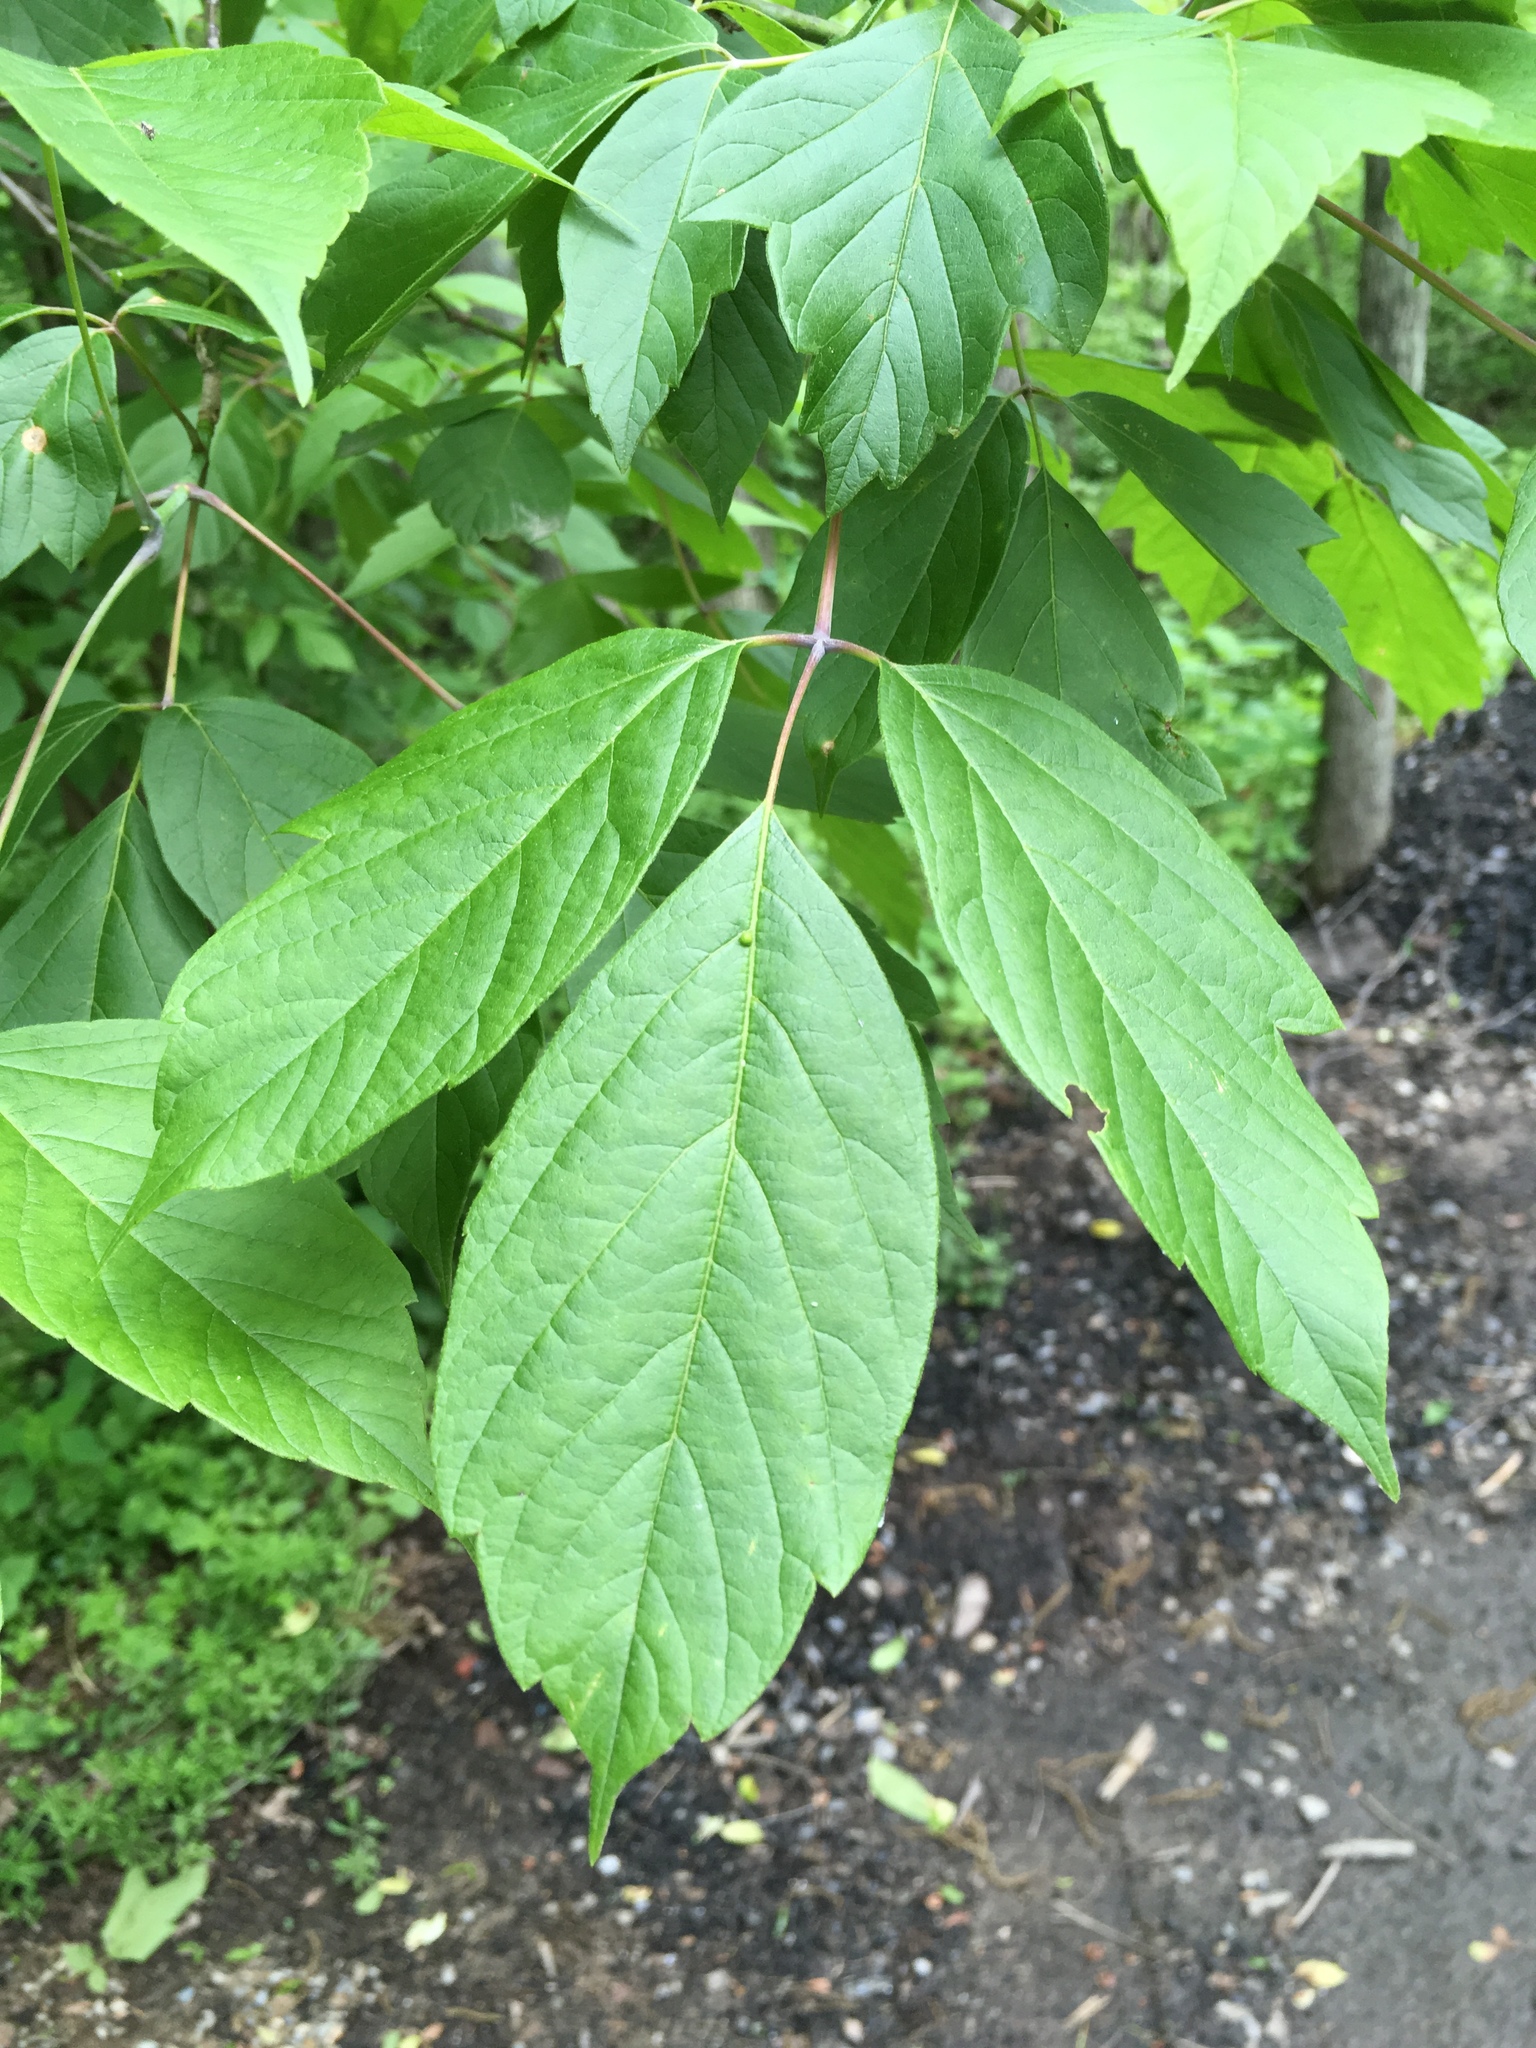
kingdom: Plantae
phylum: Tracheophyta
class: Magnoliopsida
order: Sapindales
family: Sapindaceae
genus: Acer
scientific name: Acer negundo
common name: Ashleaf maple
